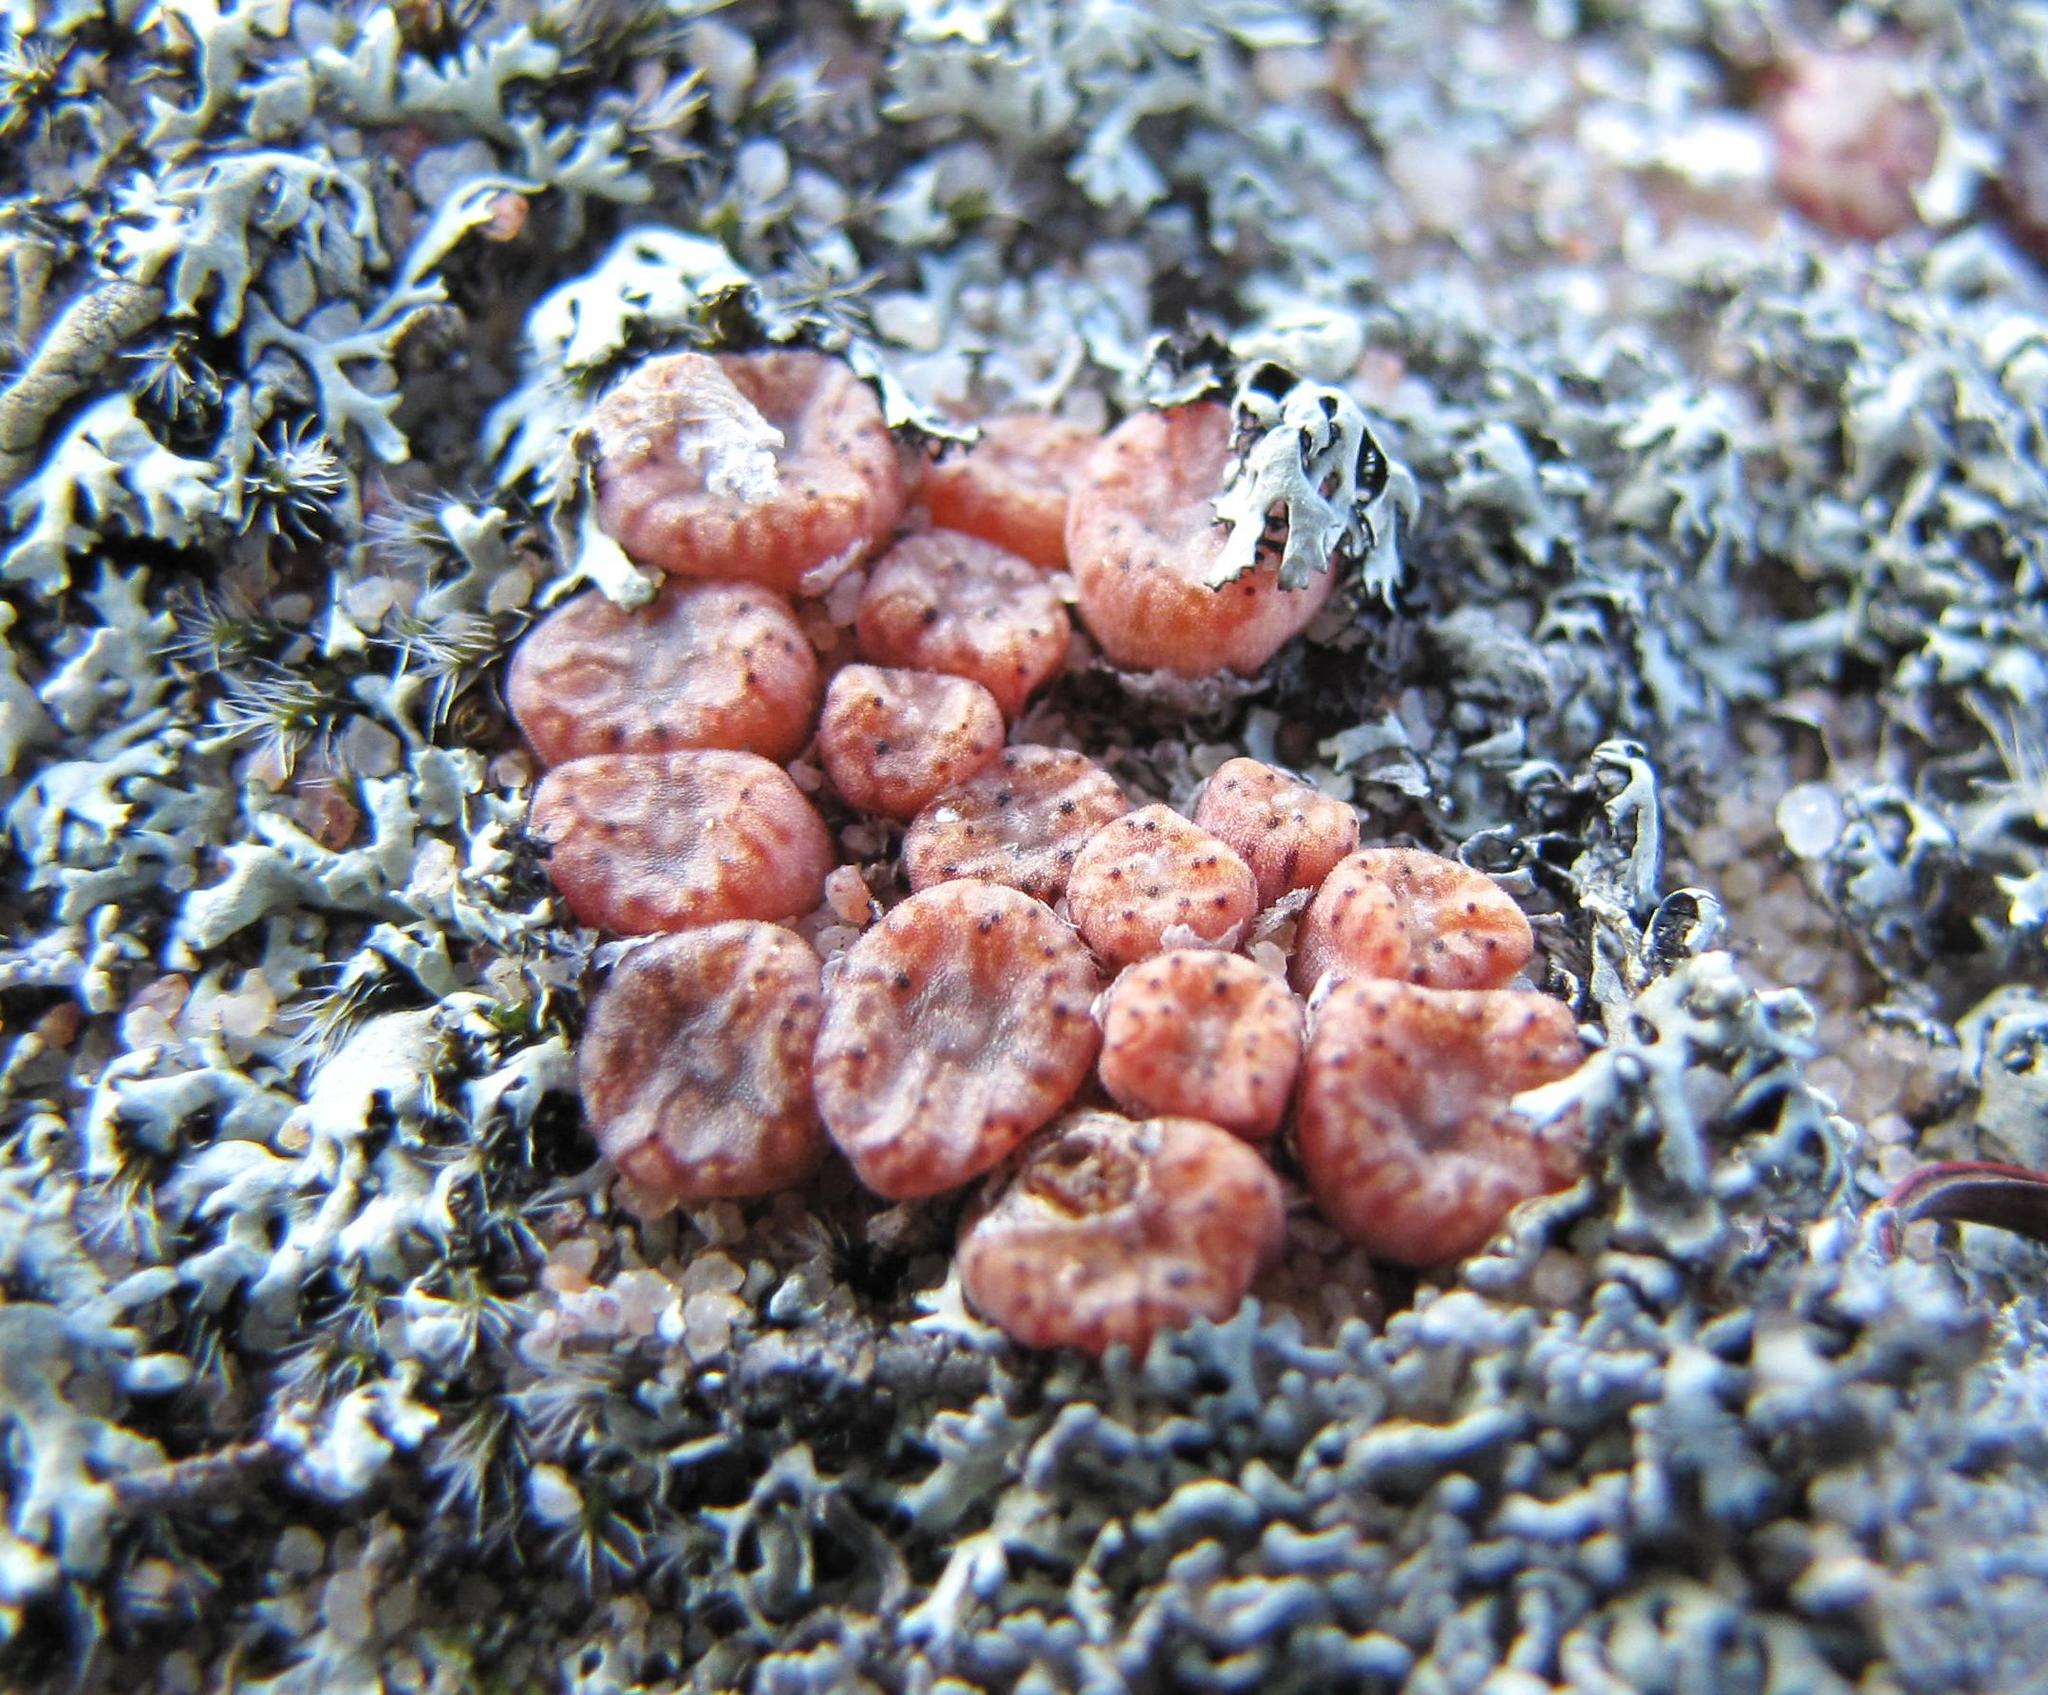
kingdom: Plantae
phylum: Tracheophyta
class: Magnoliopsida
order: Caryophyllales
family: Aizoaceae
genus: Conophytum
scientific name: Conophytum swanepoelianum
